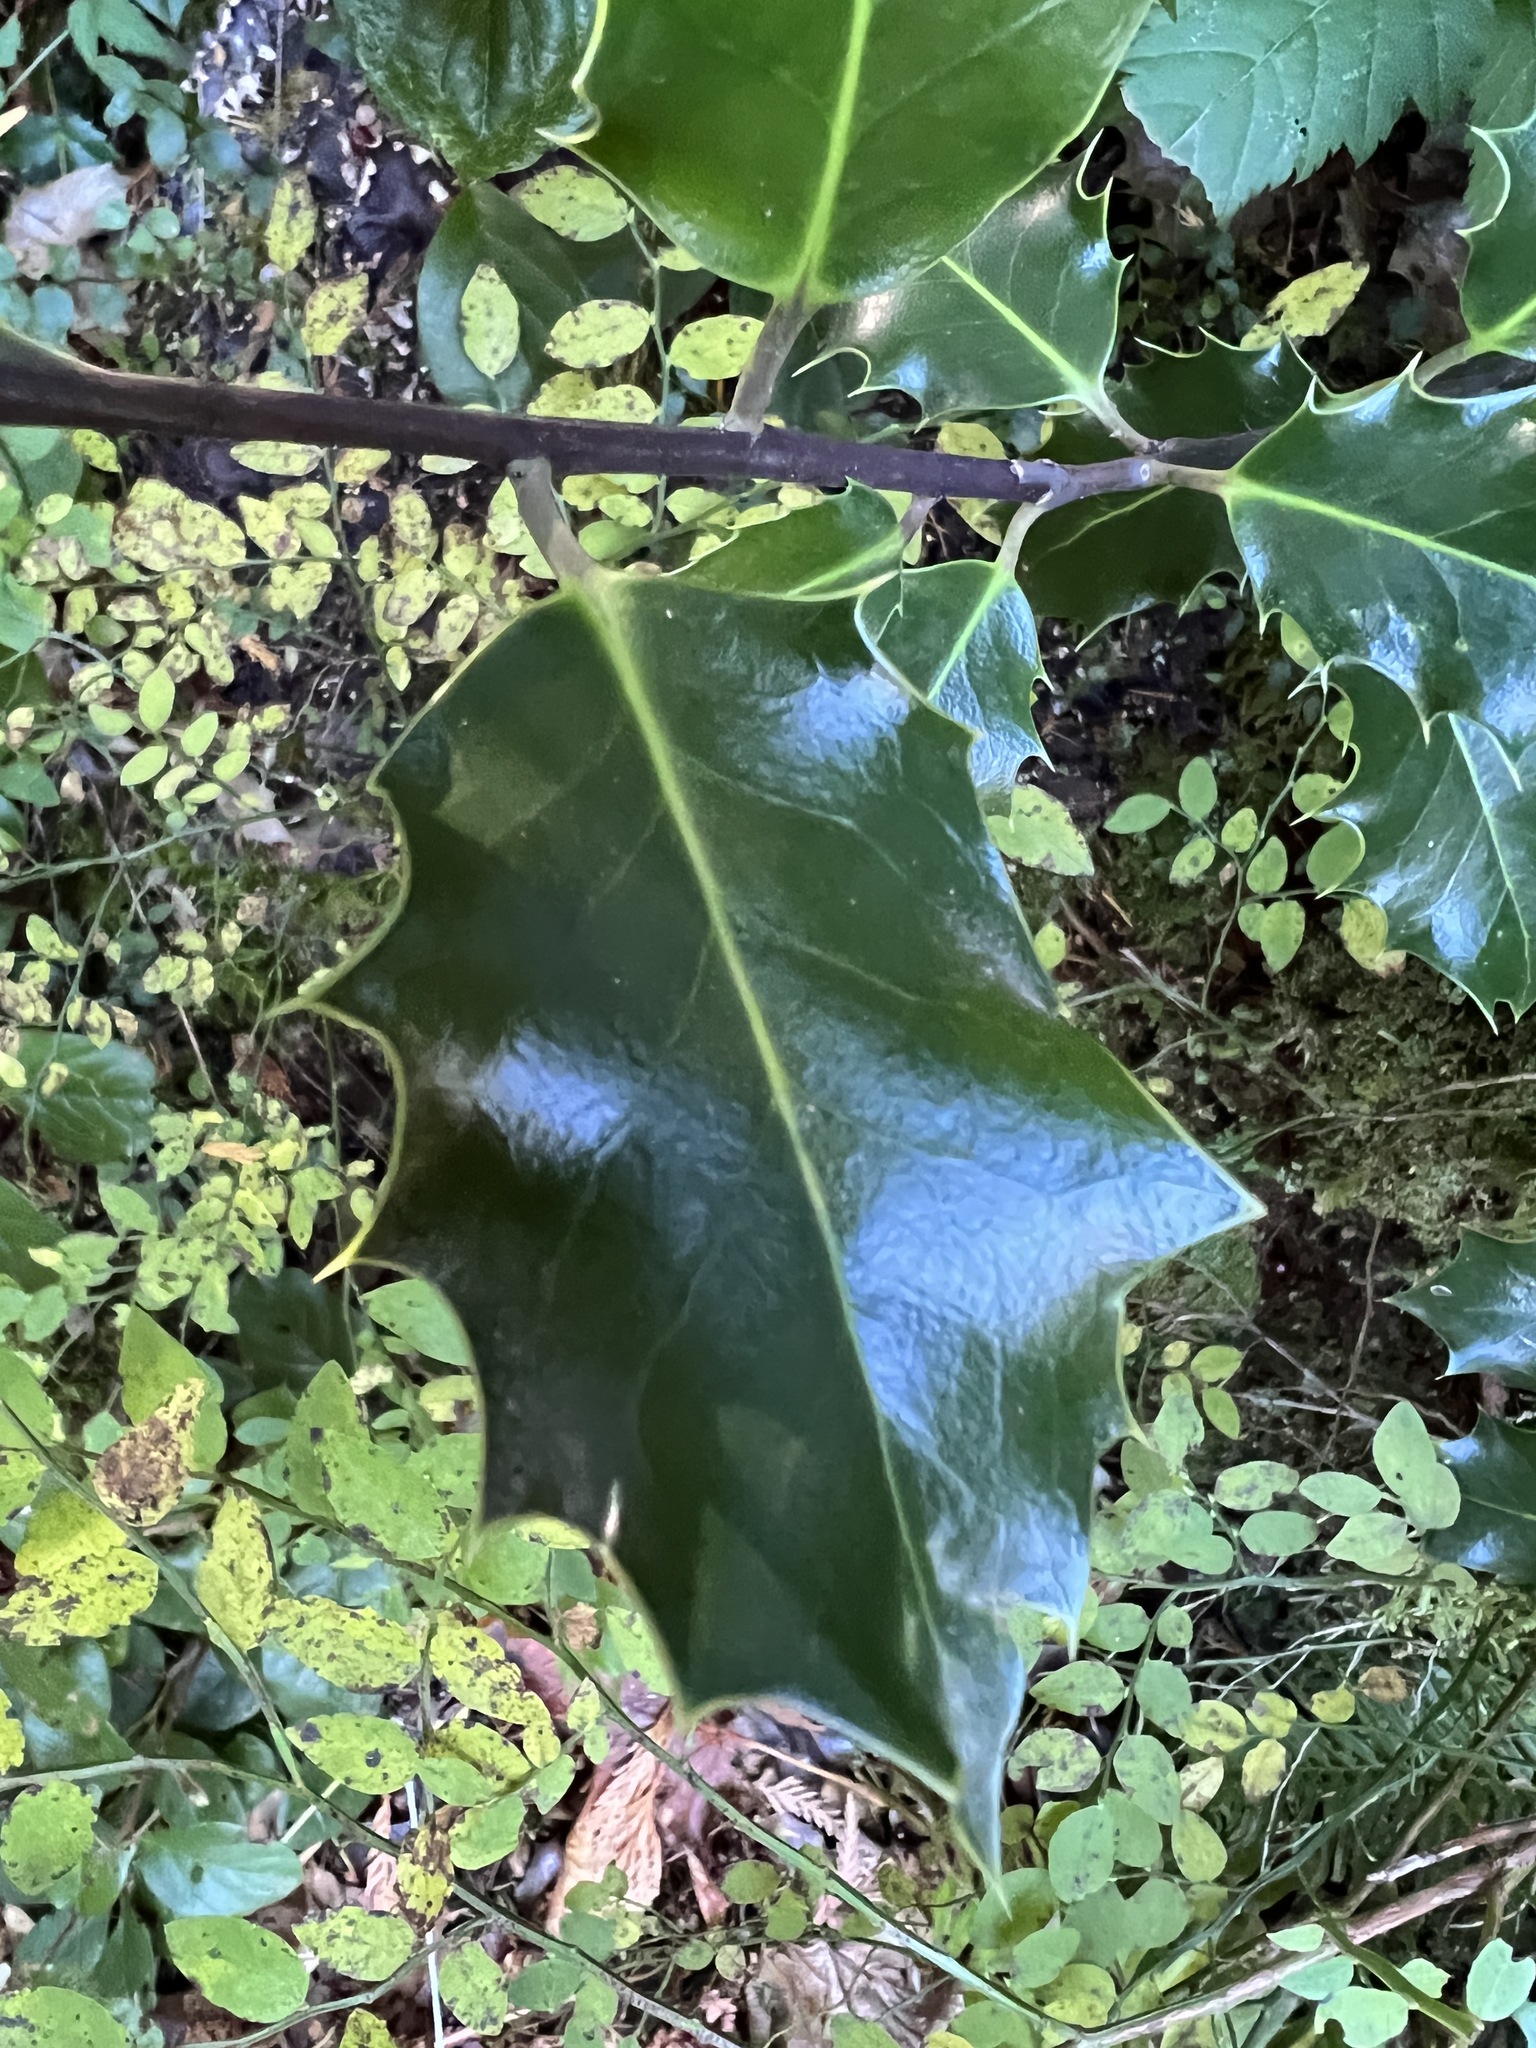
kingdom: Plantae
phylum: Tracheophyta
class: Magnoliopsida
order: Aquifoliales
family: Aquifoliaceae
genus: Ilex
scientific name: Ilex aquifolium
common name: English holly
